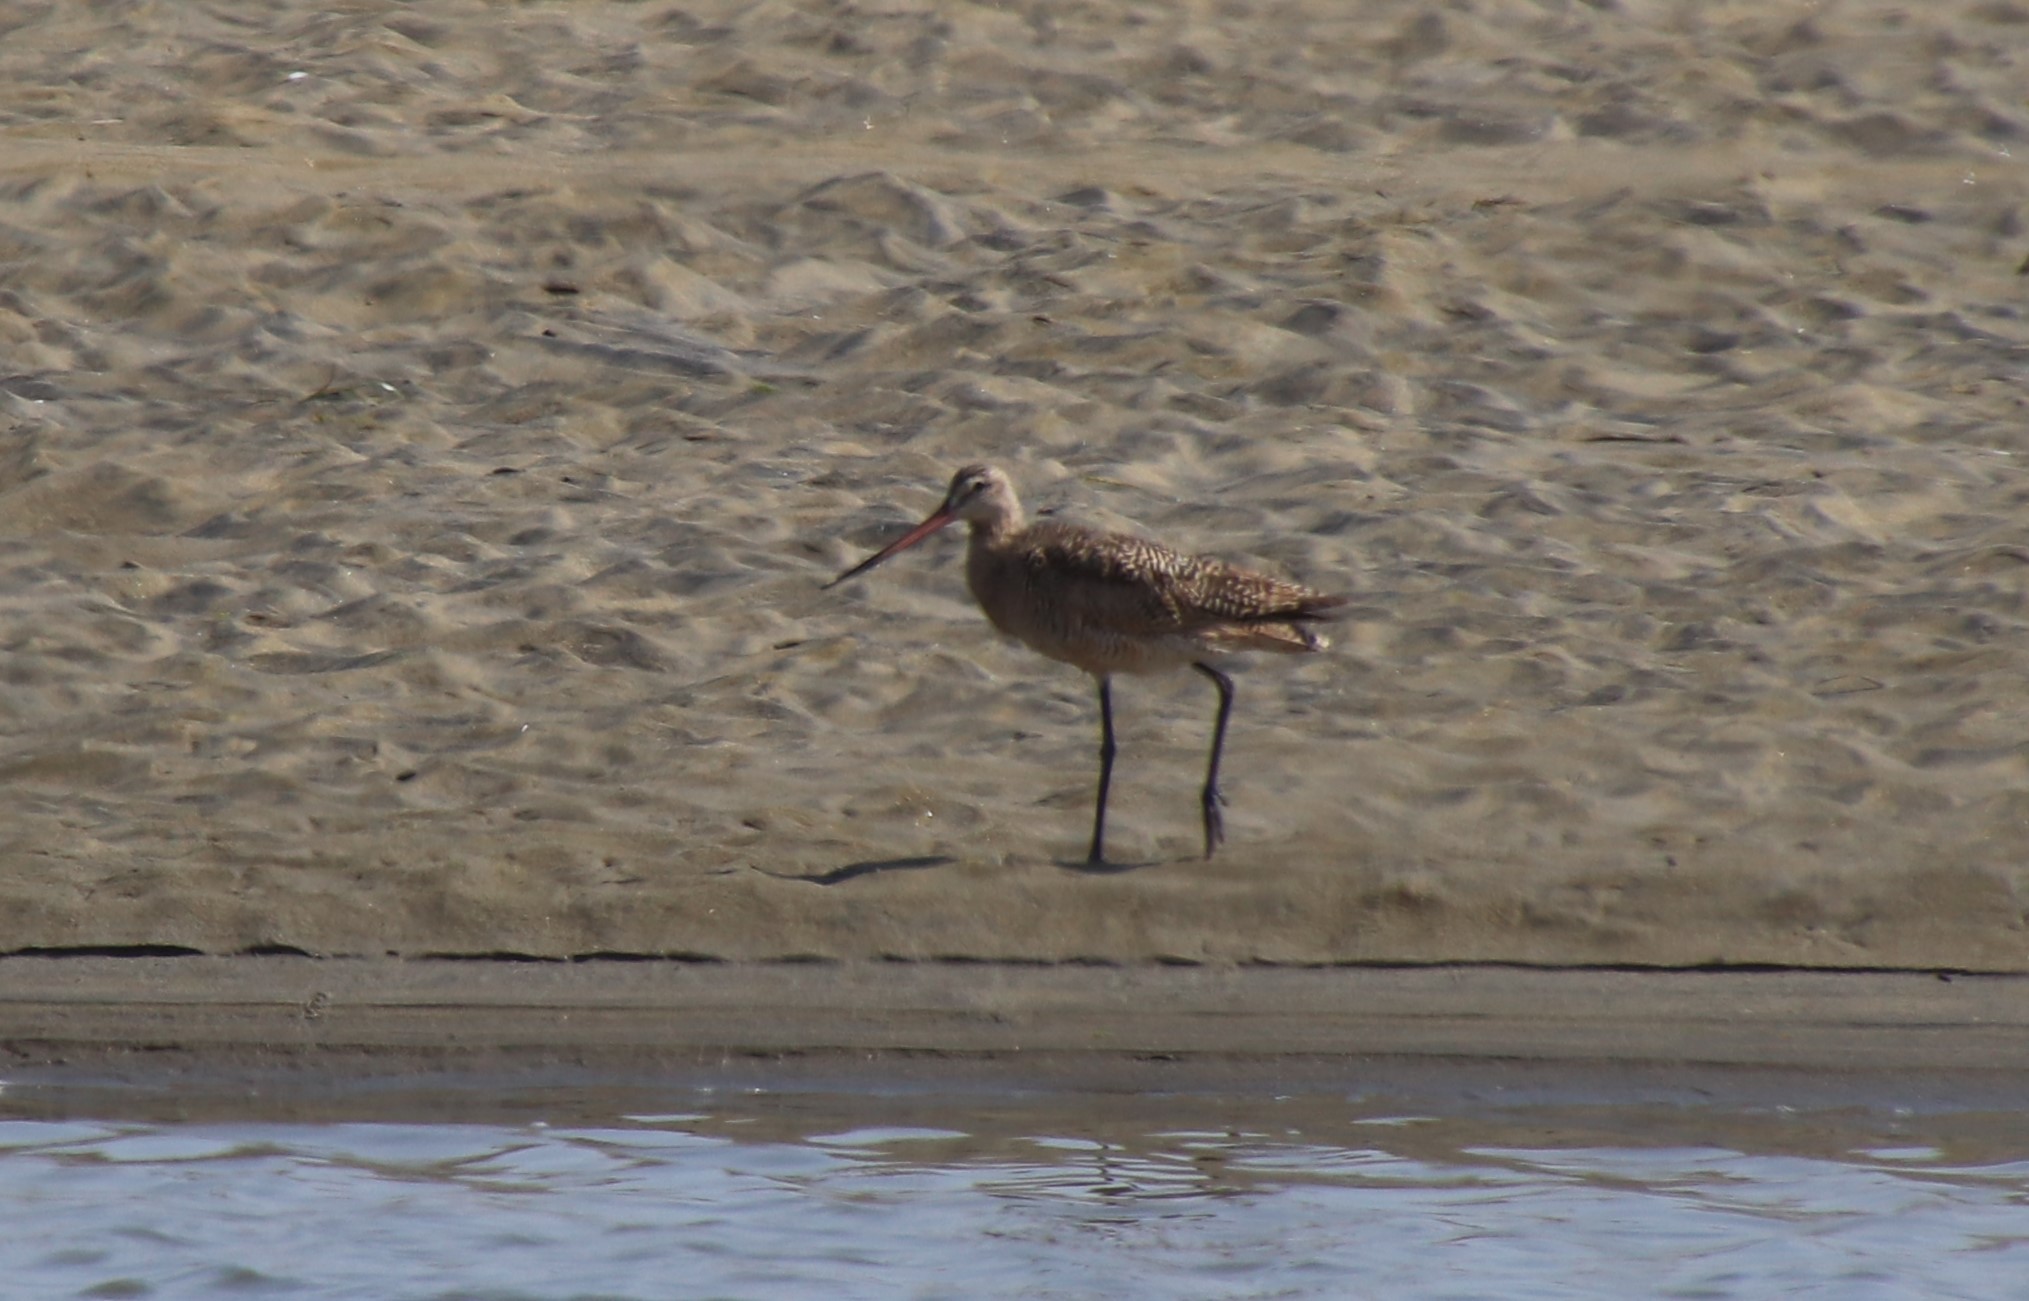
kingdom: Animalia
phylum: Chordata
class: Aves
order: Charadriiformes
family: Scolopacidae
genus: Limosa
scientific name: Limosa fedoa
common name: Marbled godwit
